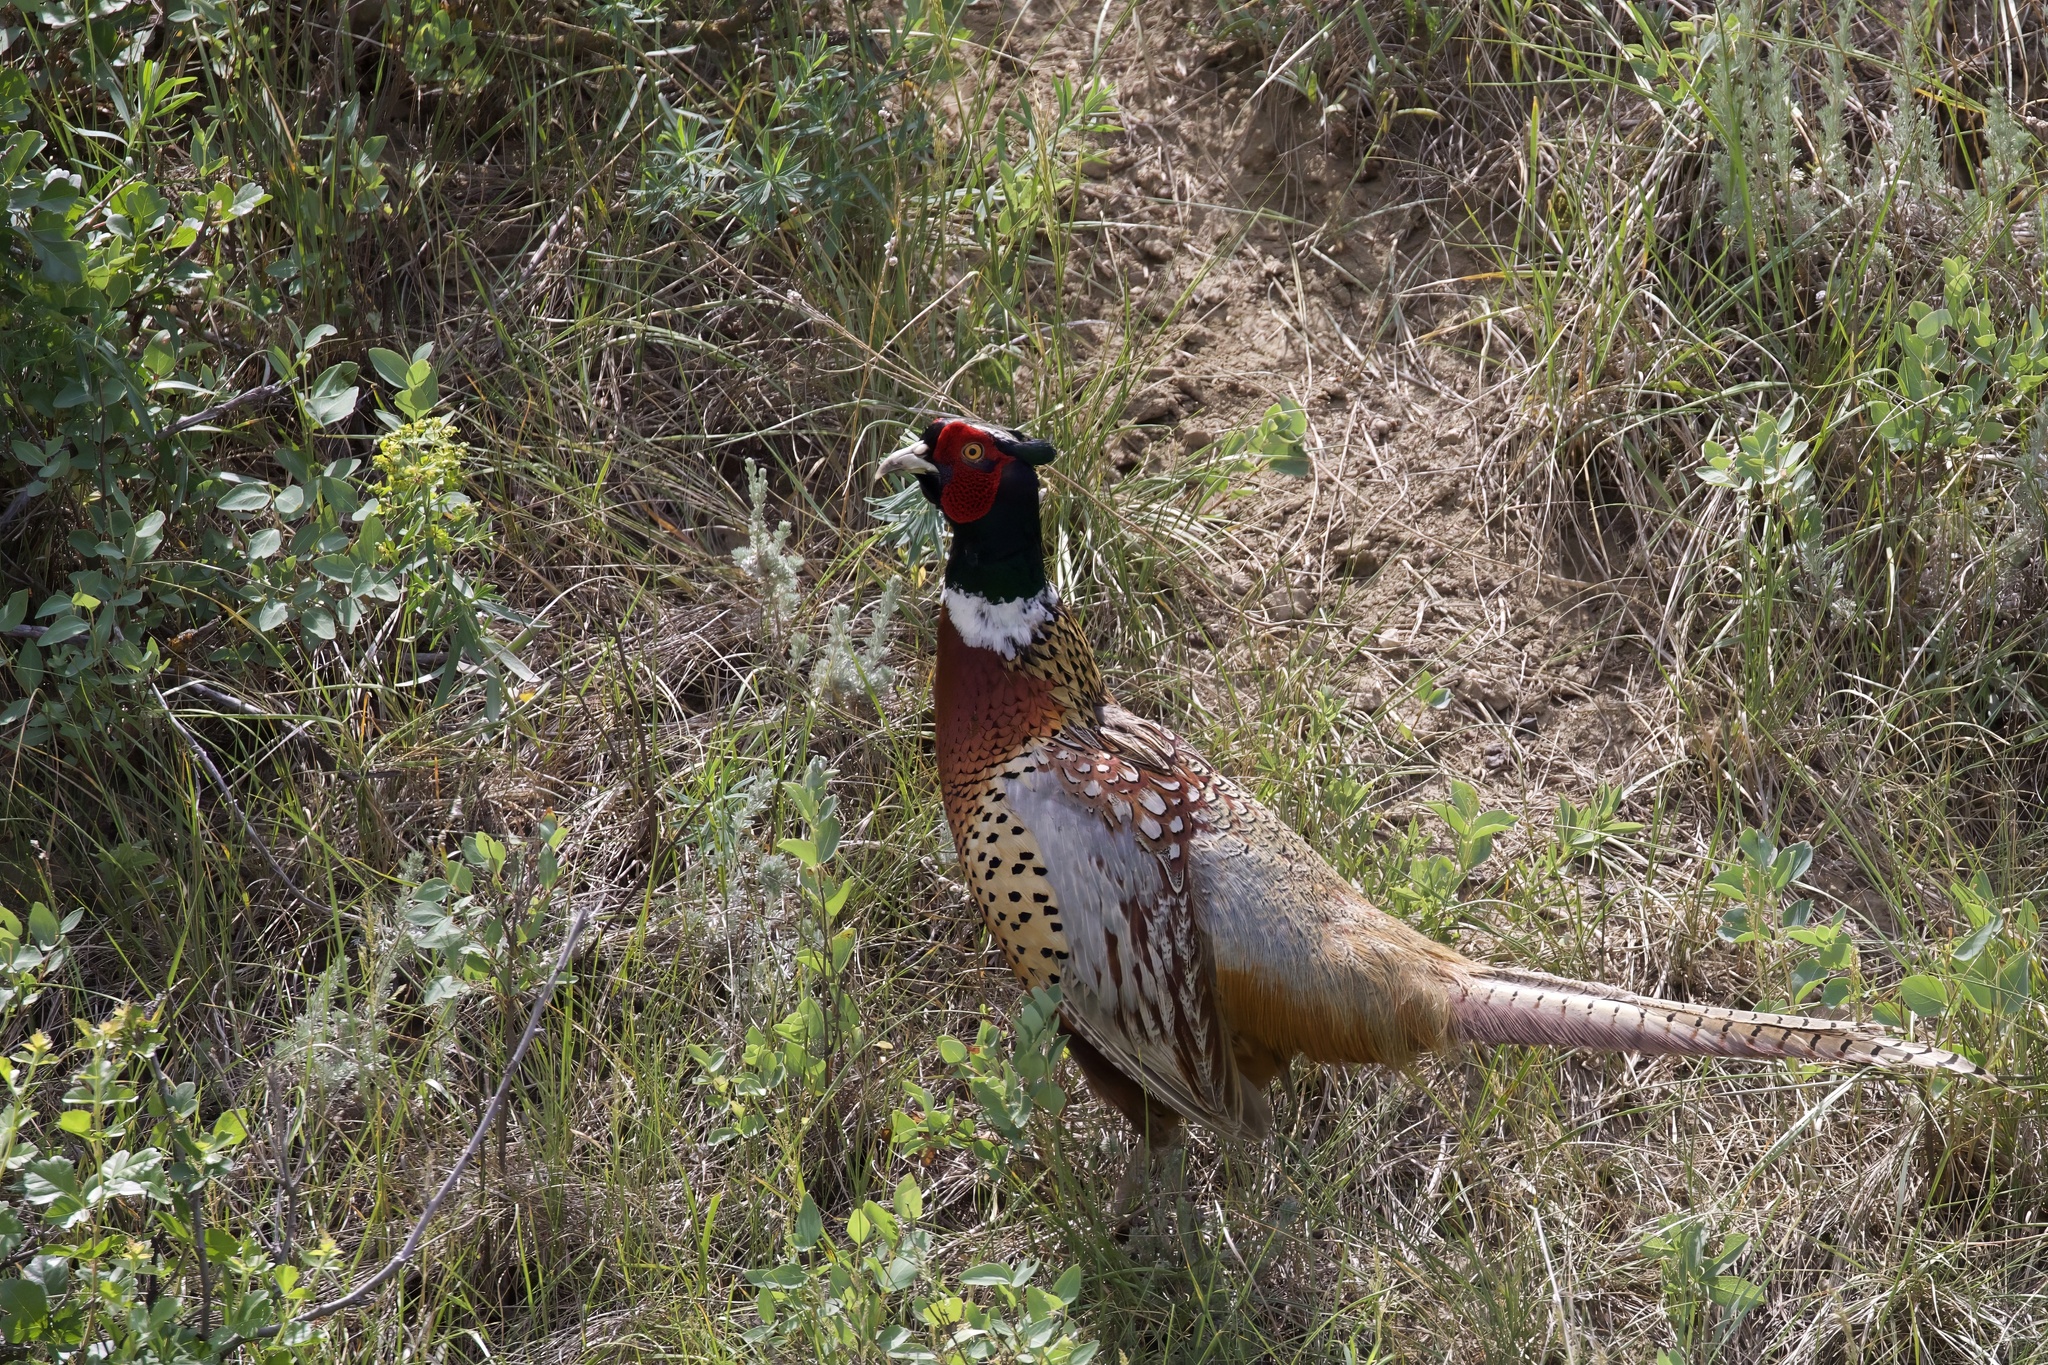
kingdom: Animalia
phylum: Chordata
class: Aves
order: Galliformes
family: Phasianidae
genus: Phasianus
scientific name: Phasianus colchicus
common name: Common pheasant
